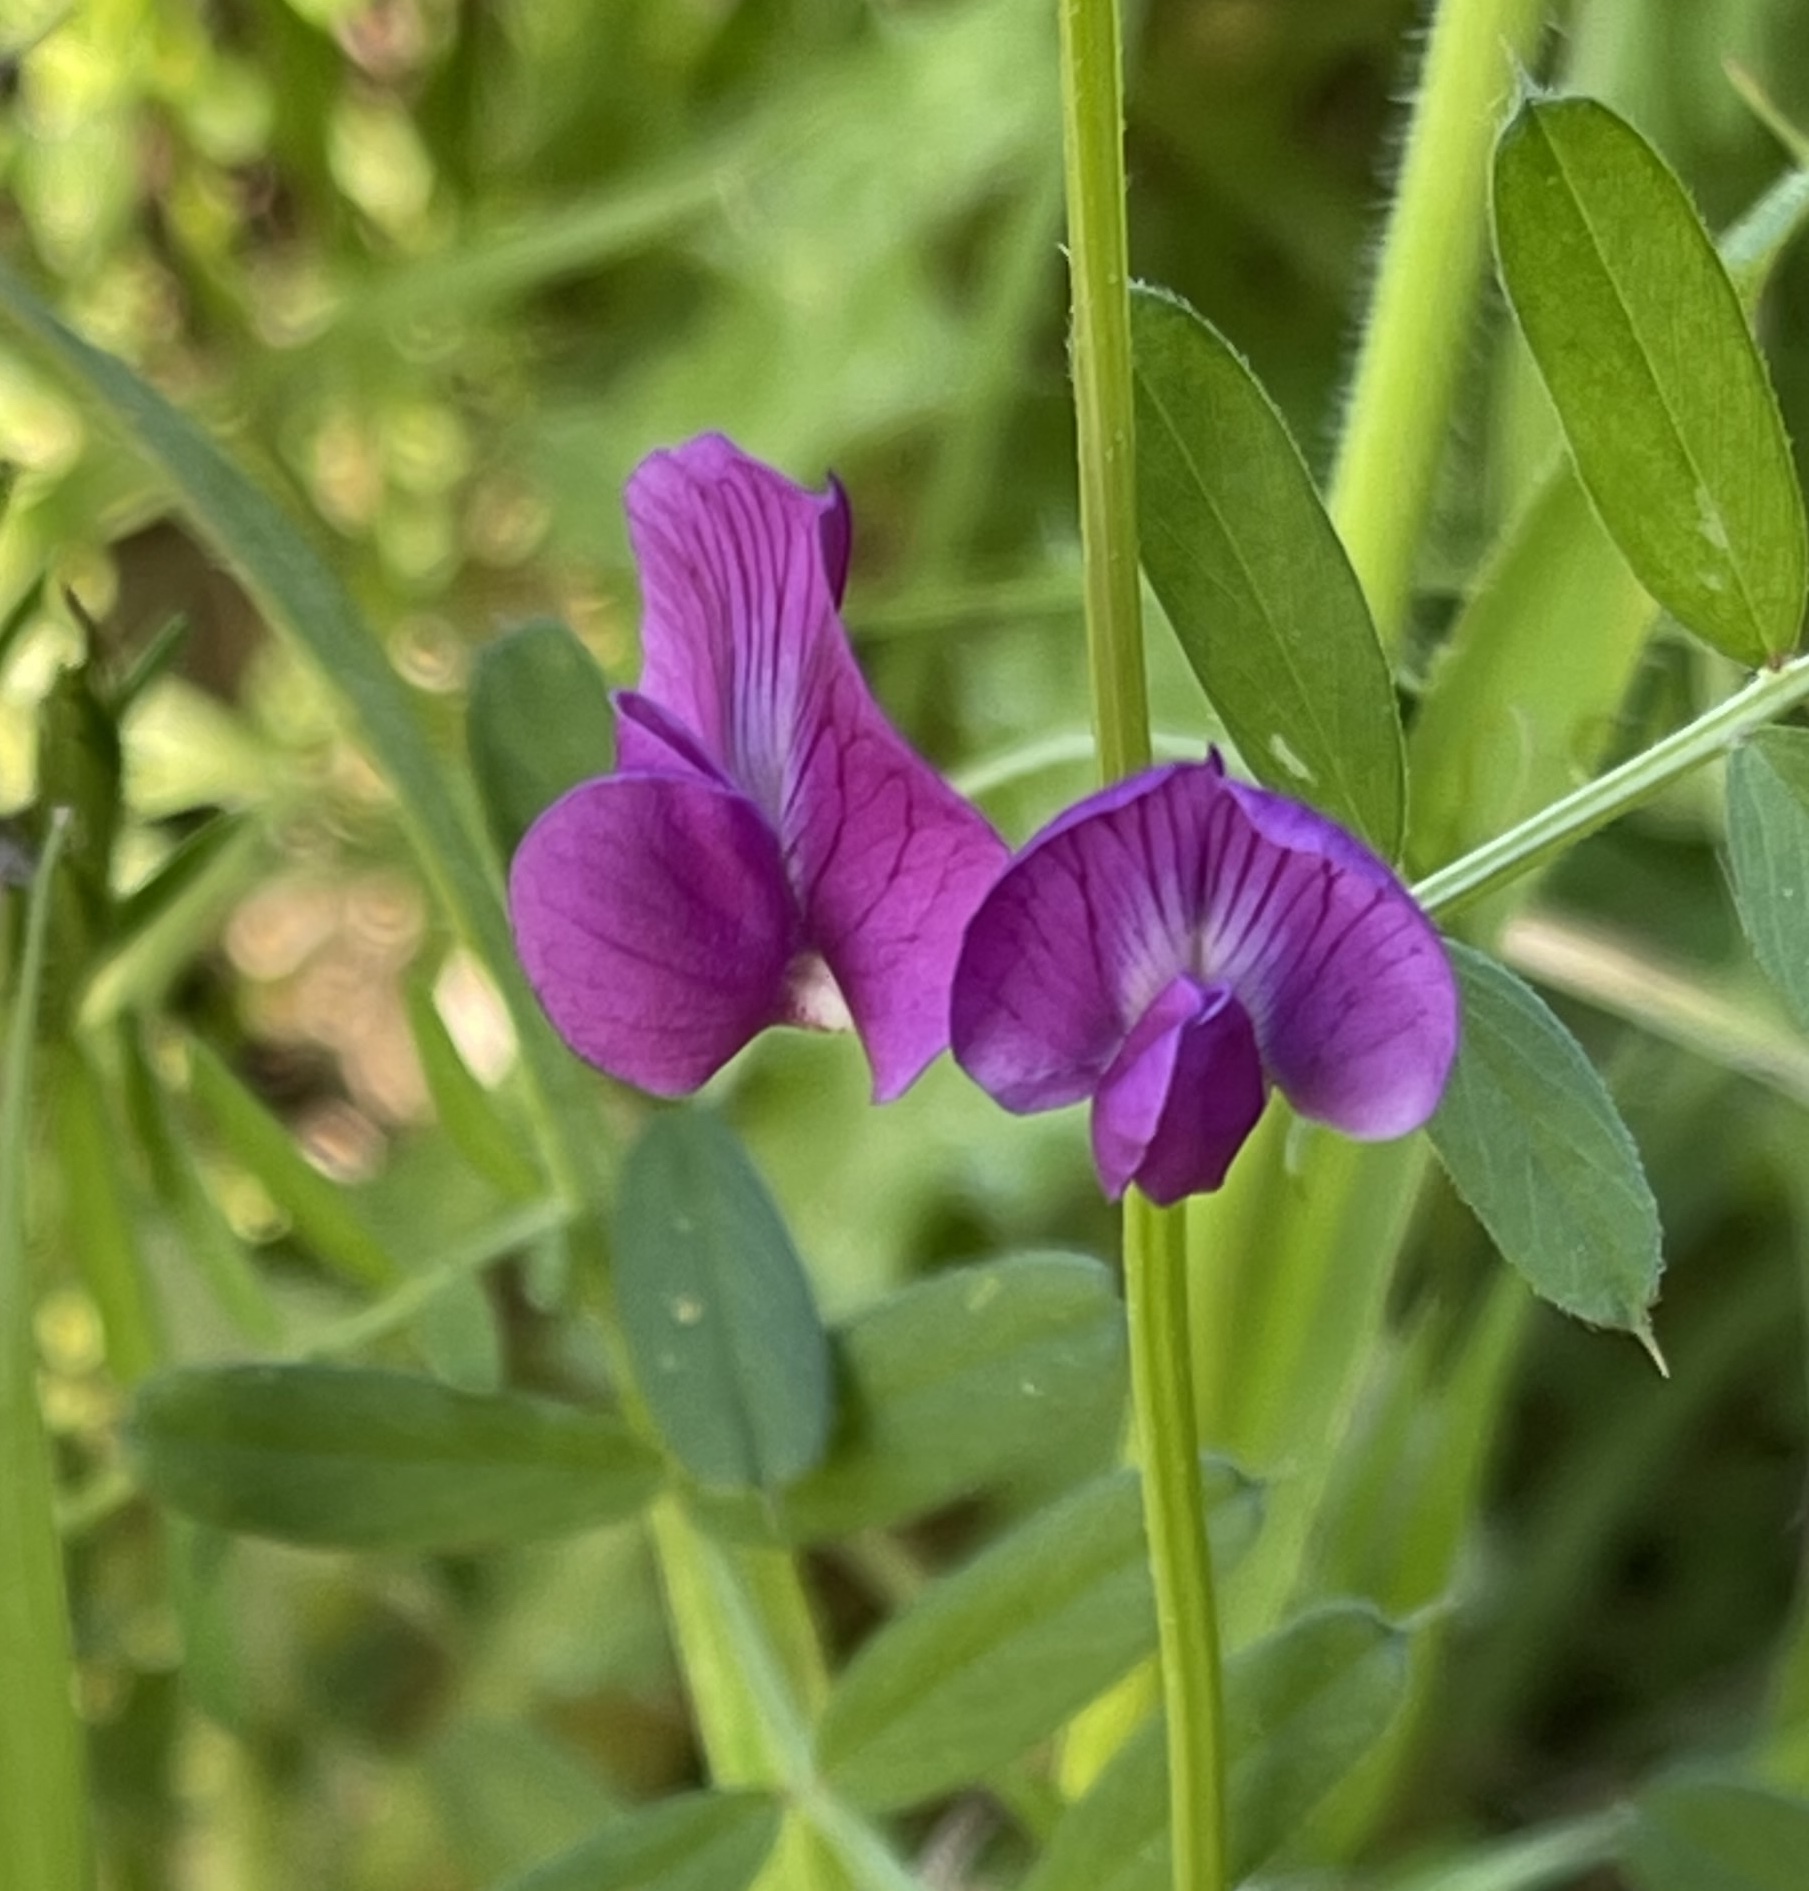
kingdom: Plantae
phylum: Tracheophyta
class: Magnoliopsida
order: Fabales
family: Fabaceae
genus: Vicia
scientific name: Vicia sativa
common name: Garden vetch
